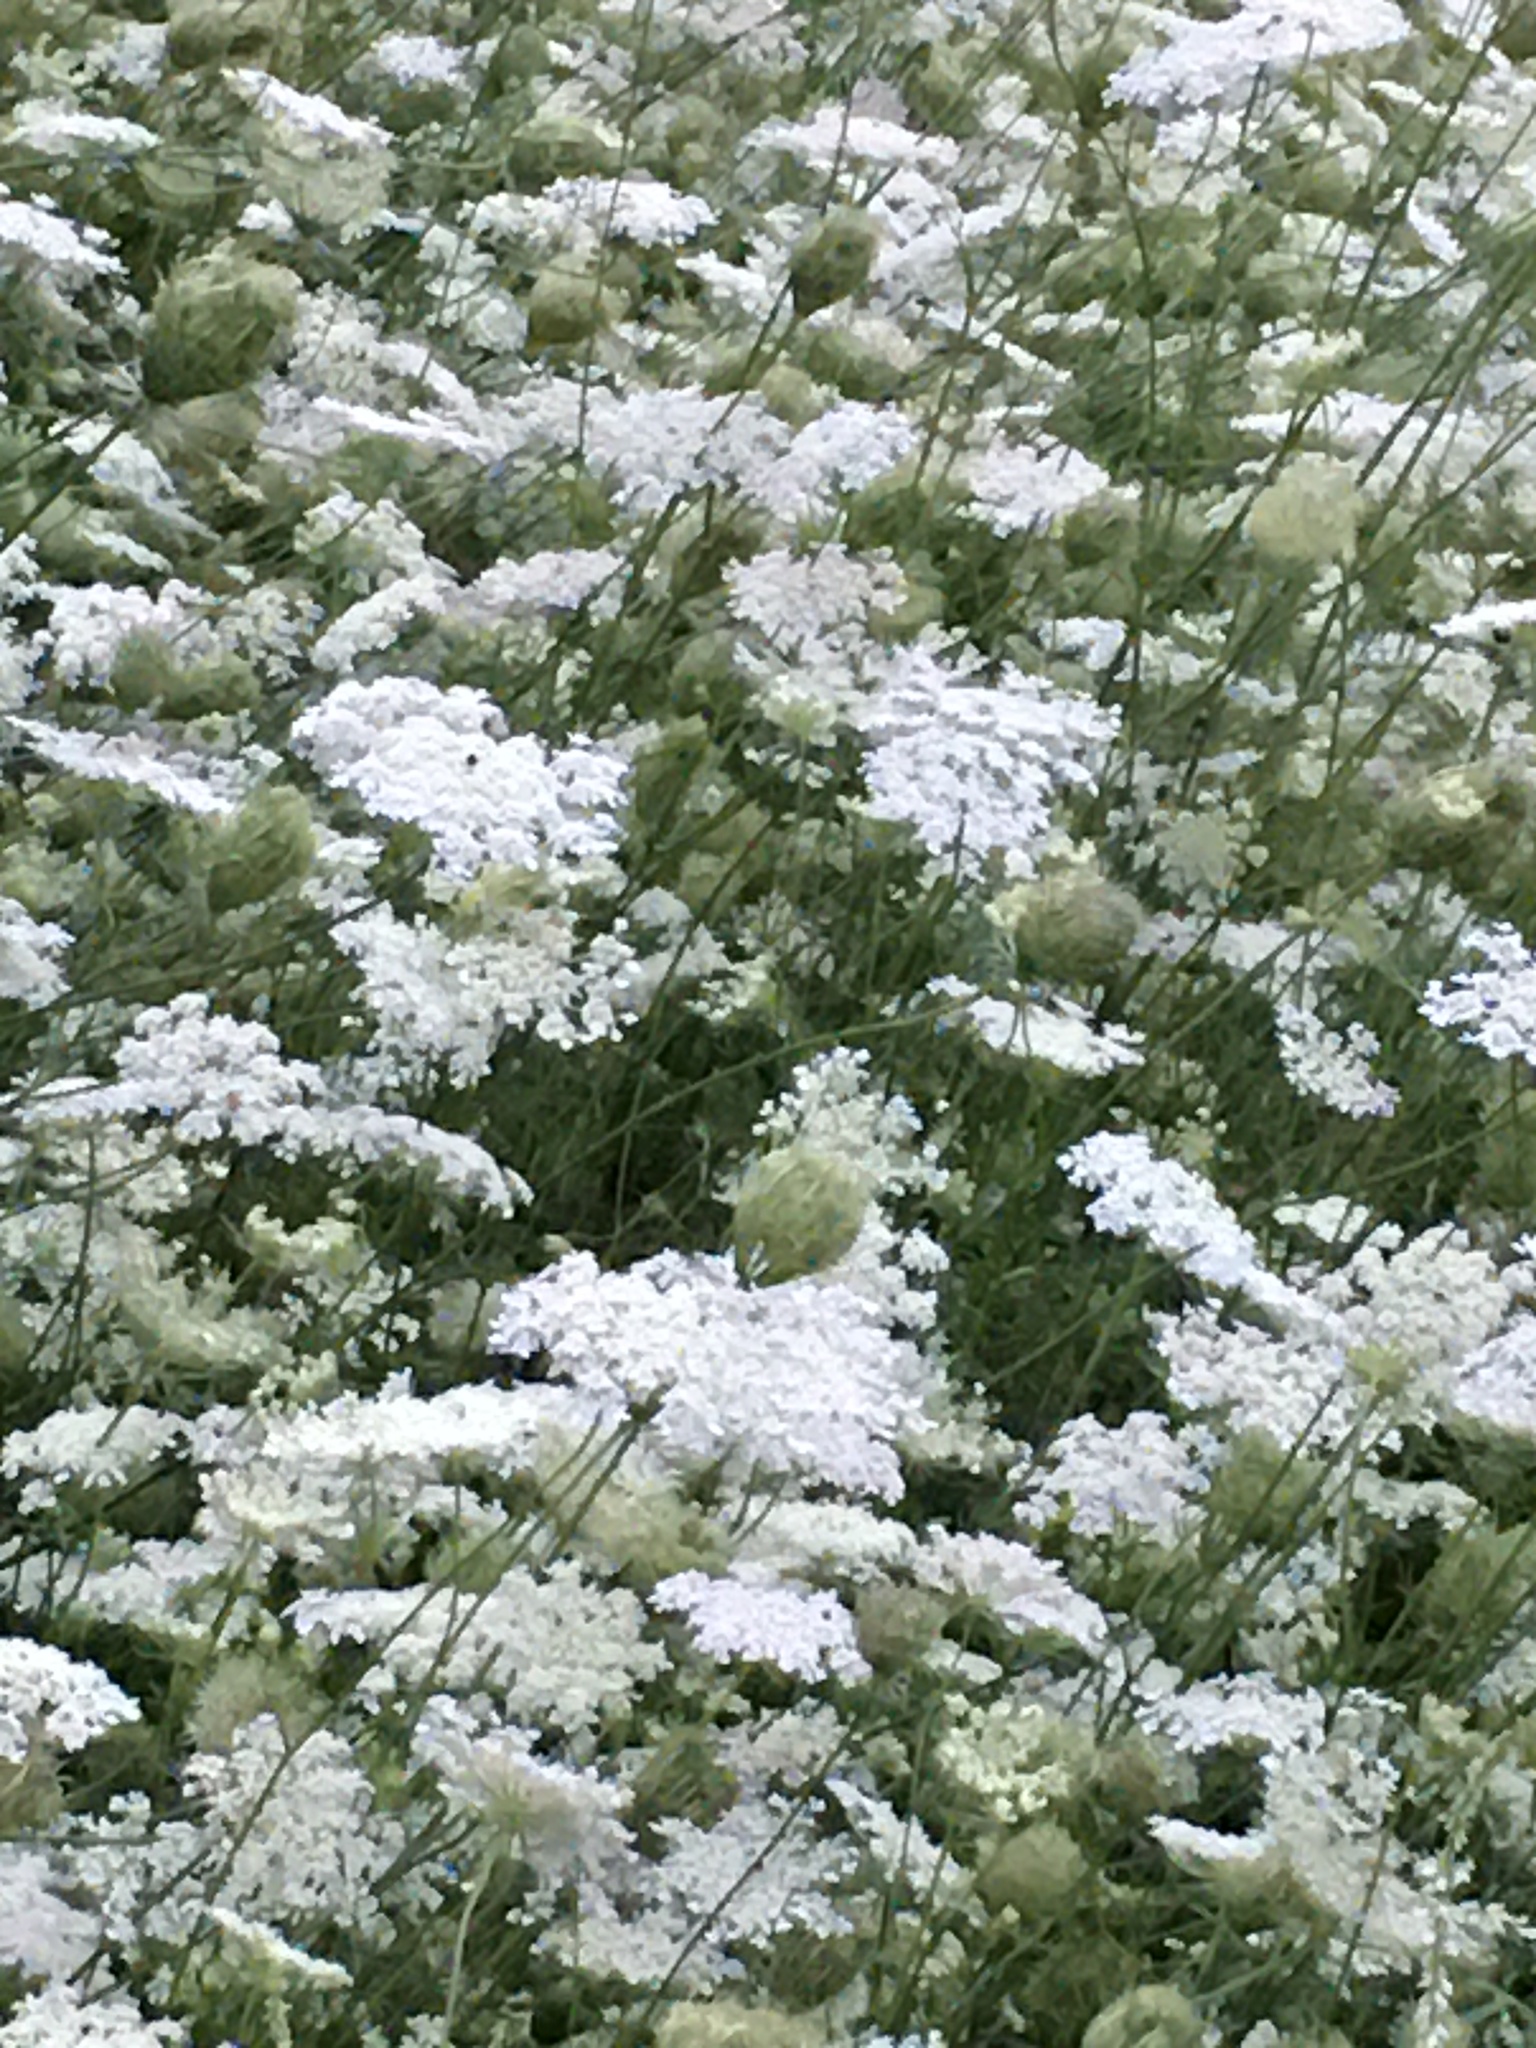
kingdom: Plantae
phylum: Tracheophyta
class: Magnoliopsida
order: Apiales
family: Apiaceae
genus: Daucus
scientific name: Daucus carota
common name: Wild carrot
